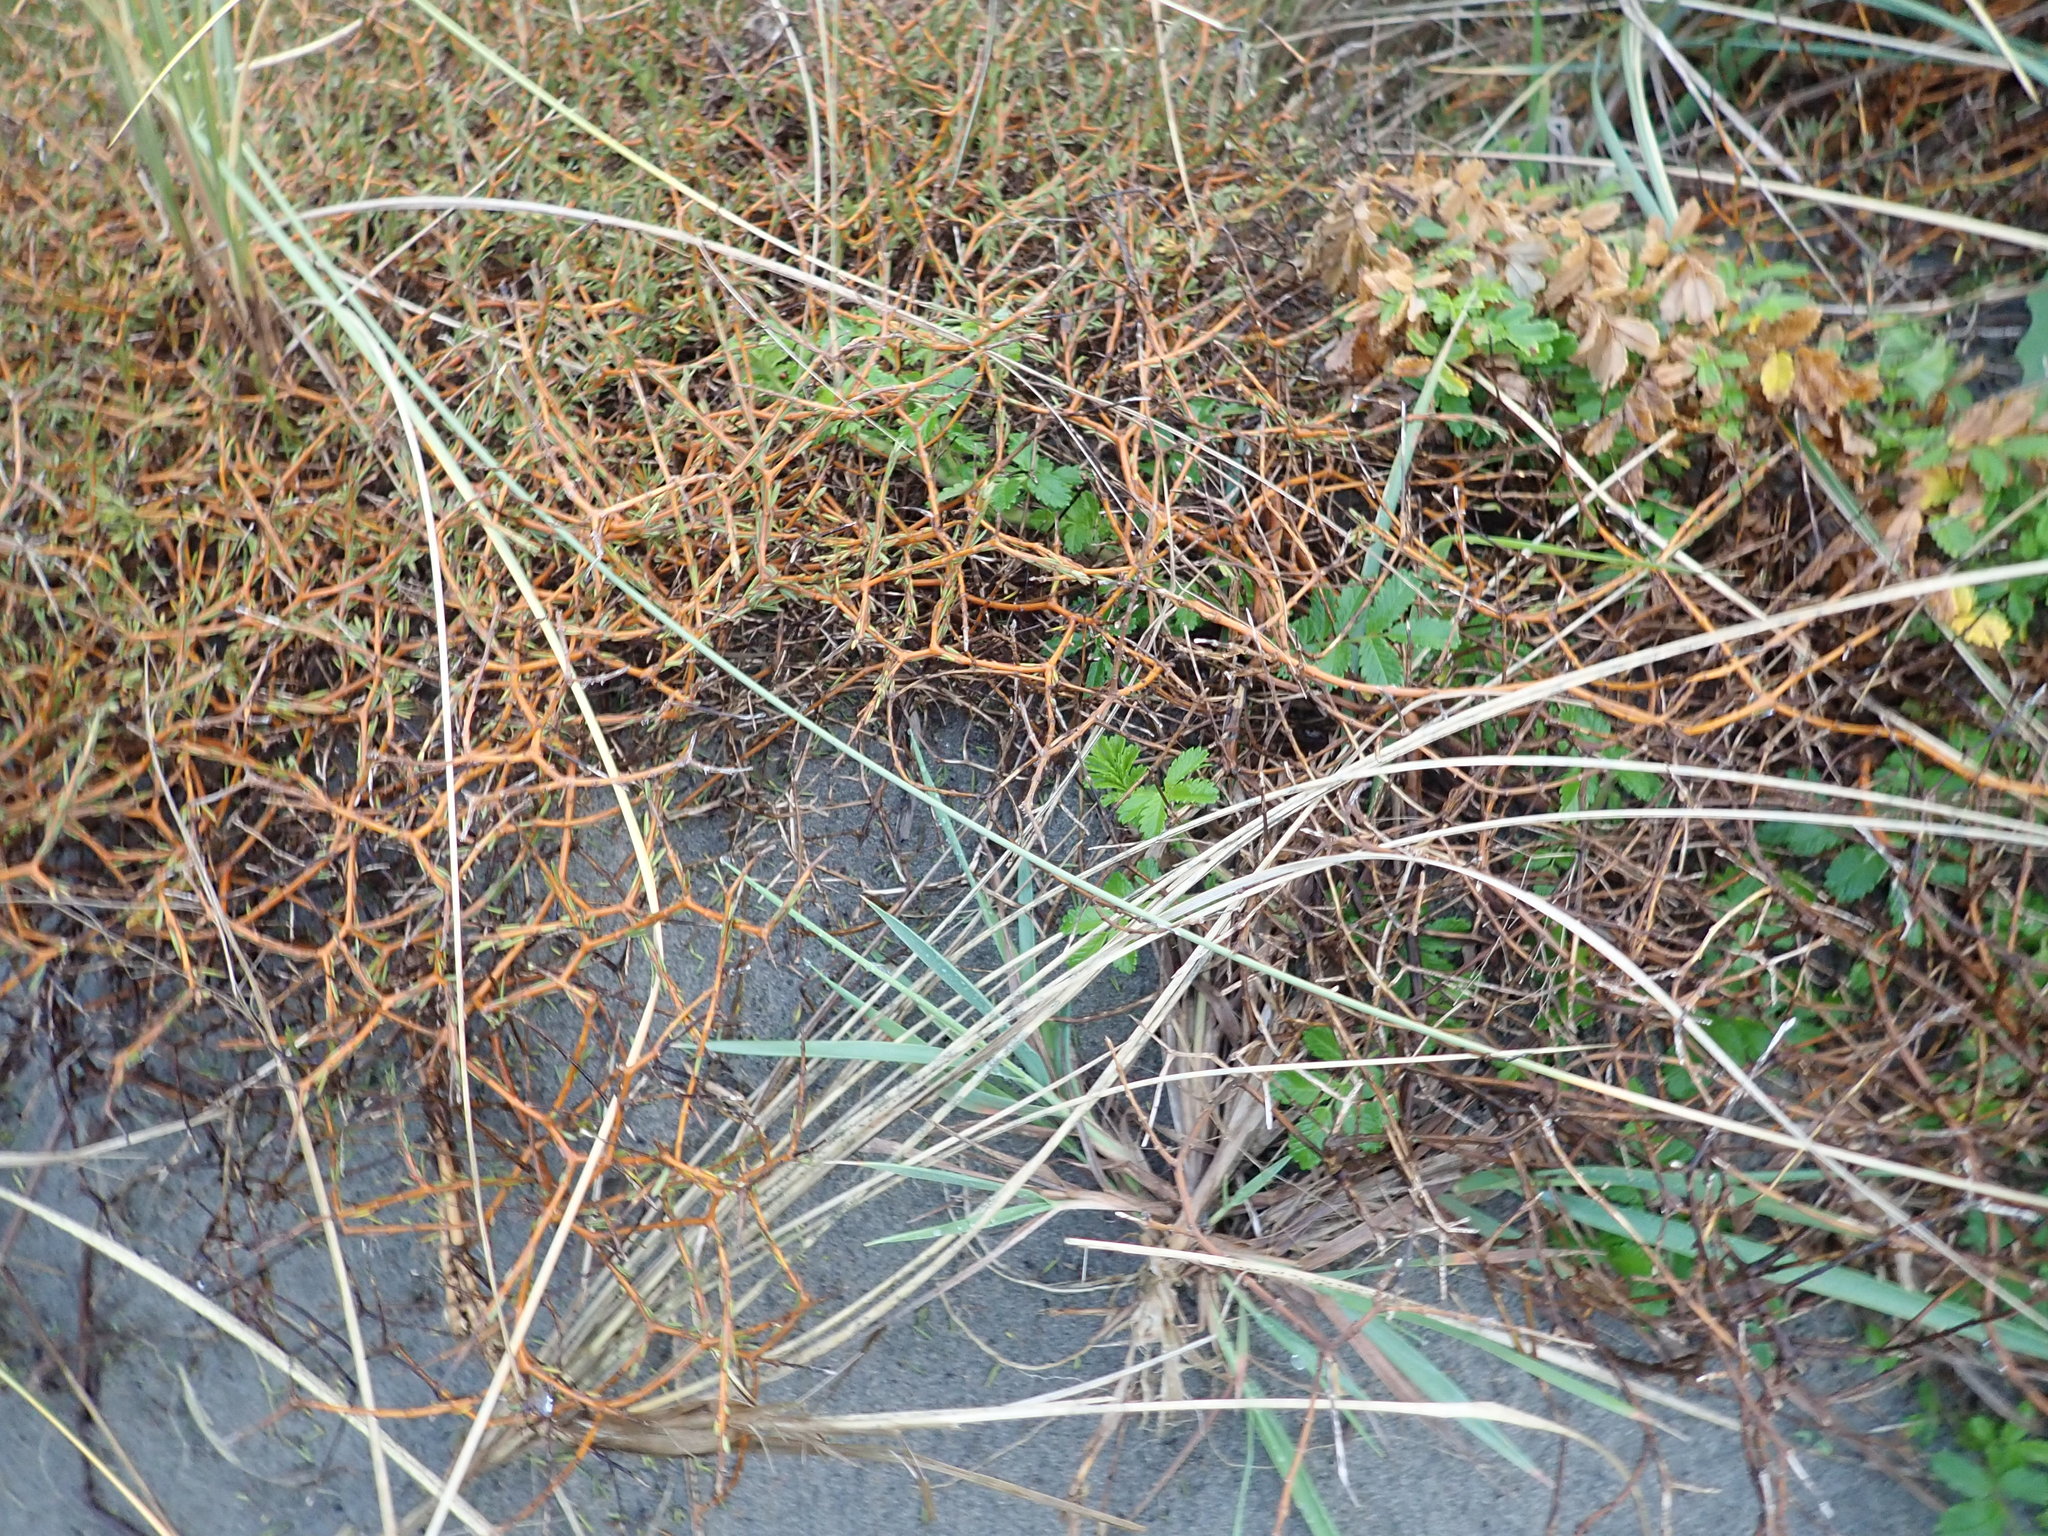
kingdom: Plantae
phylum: Tracheophyta
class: Magnoliopsida
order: Gentianales
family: Rubiaceae
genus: Coprosma
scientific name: Coprosma acerosa
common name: Sand coprosma
